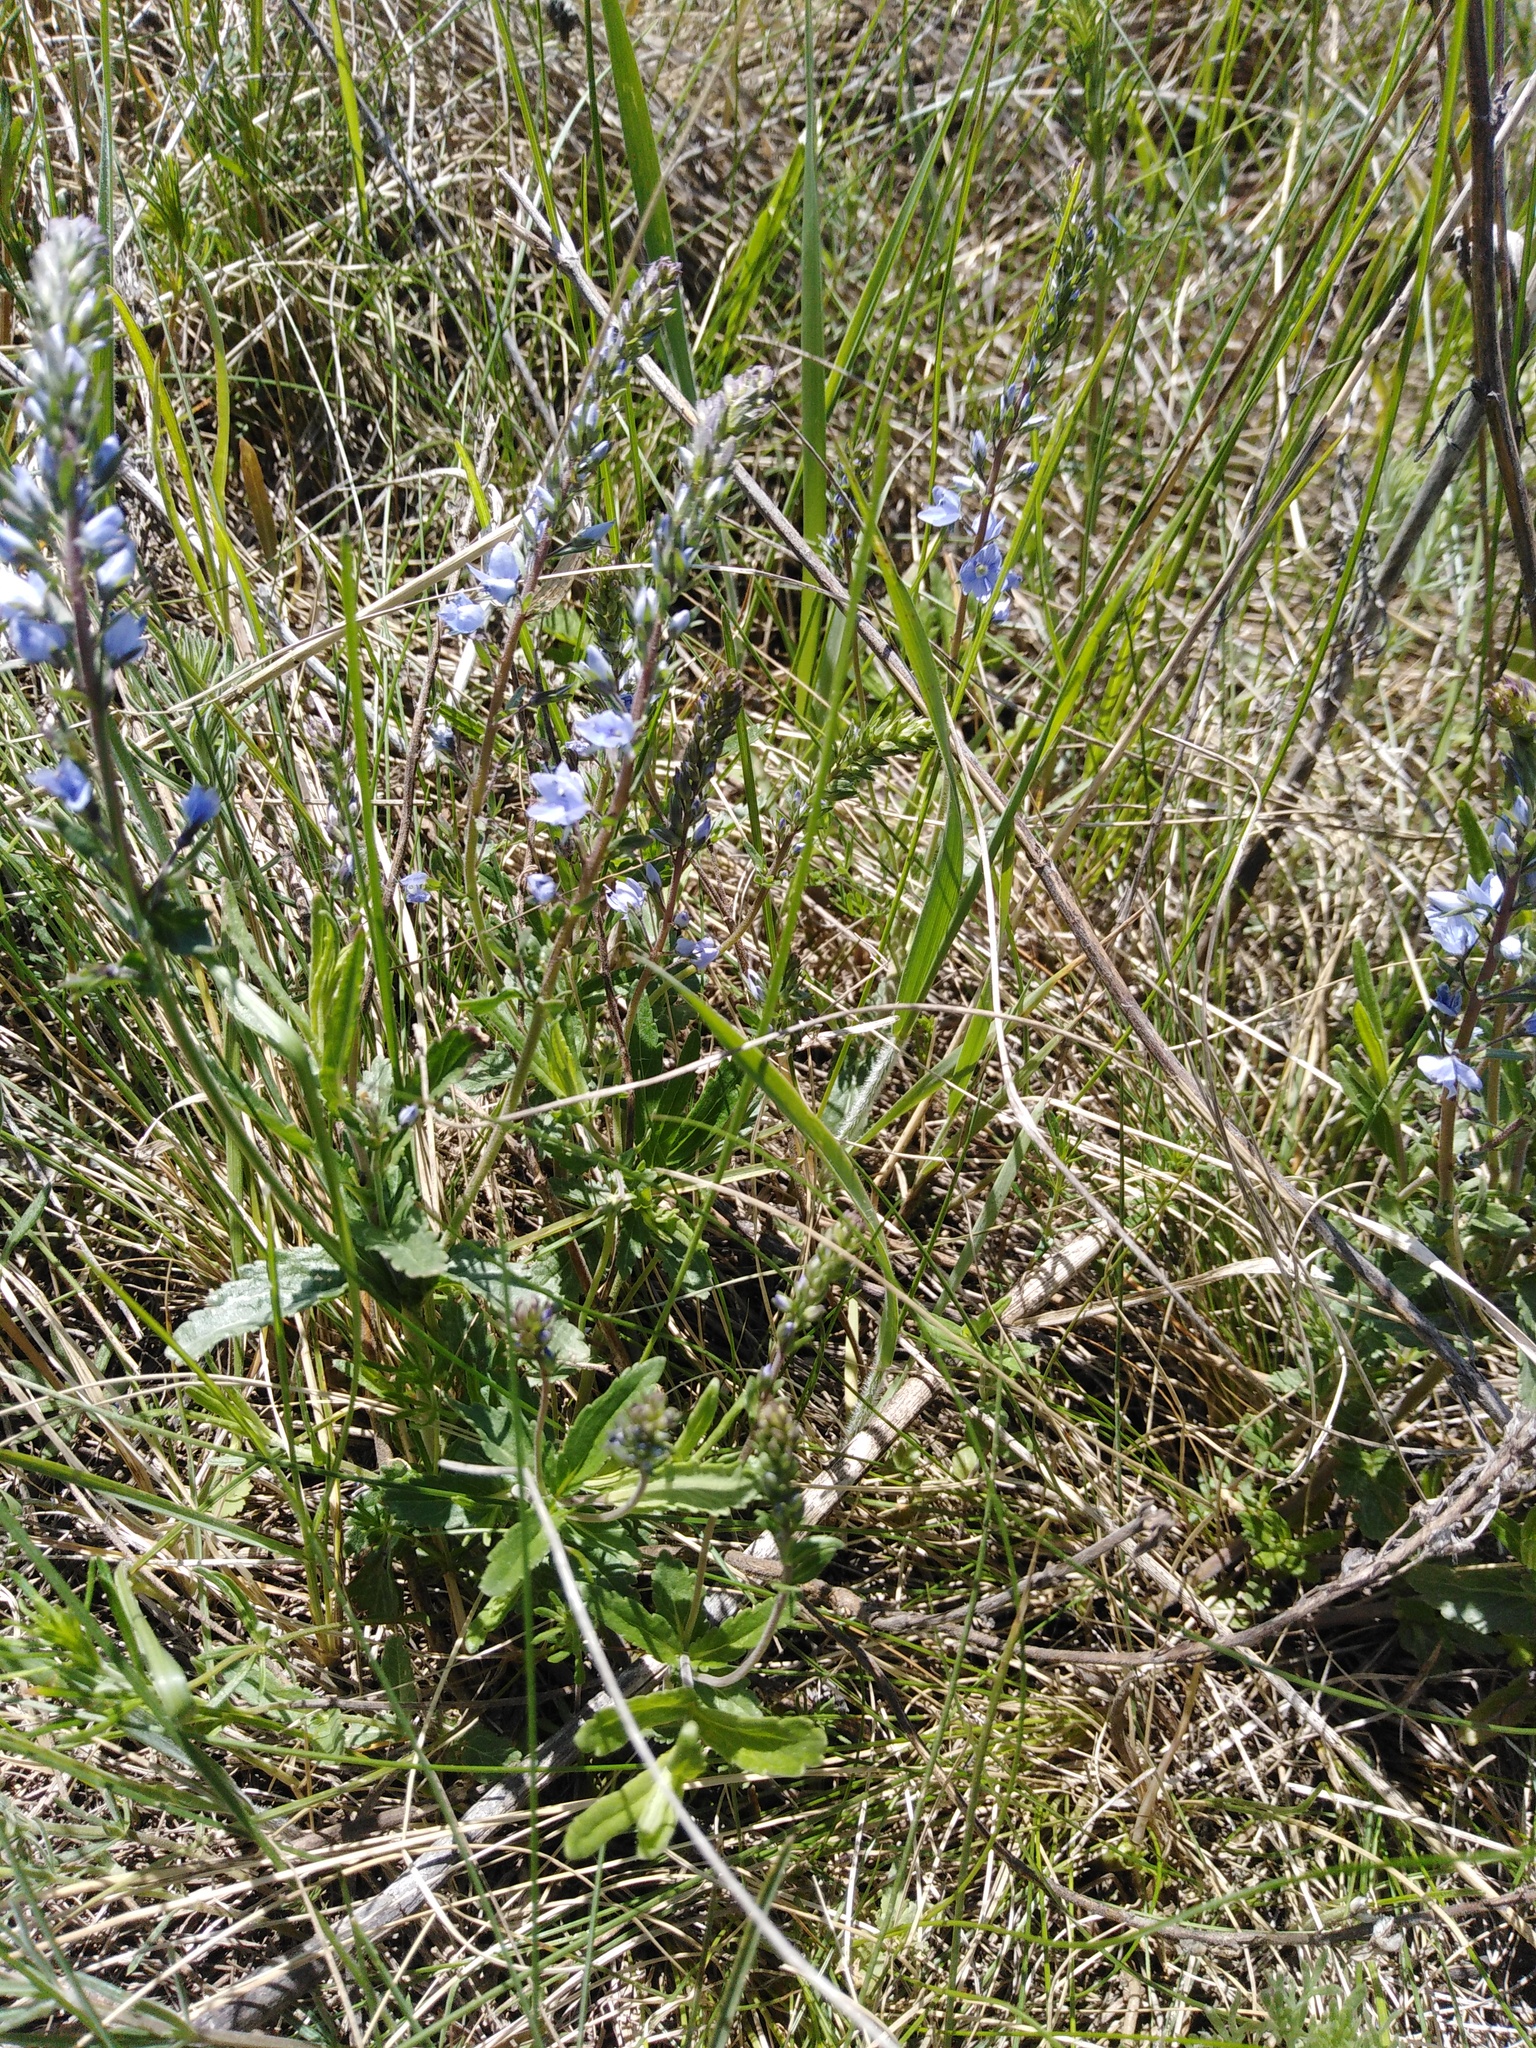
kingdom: Plantae
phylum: Tracheophyta
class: Magnoliopsida
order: Lamiales
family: Plantaginaceae
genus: Veronica
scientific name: Veronica prostrata
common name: Prostrate speedwell
